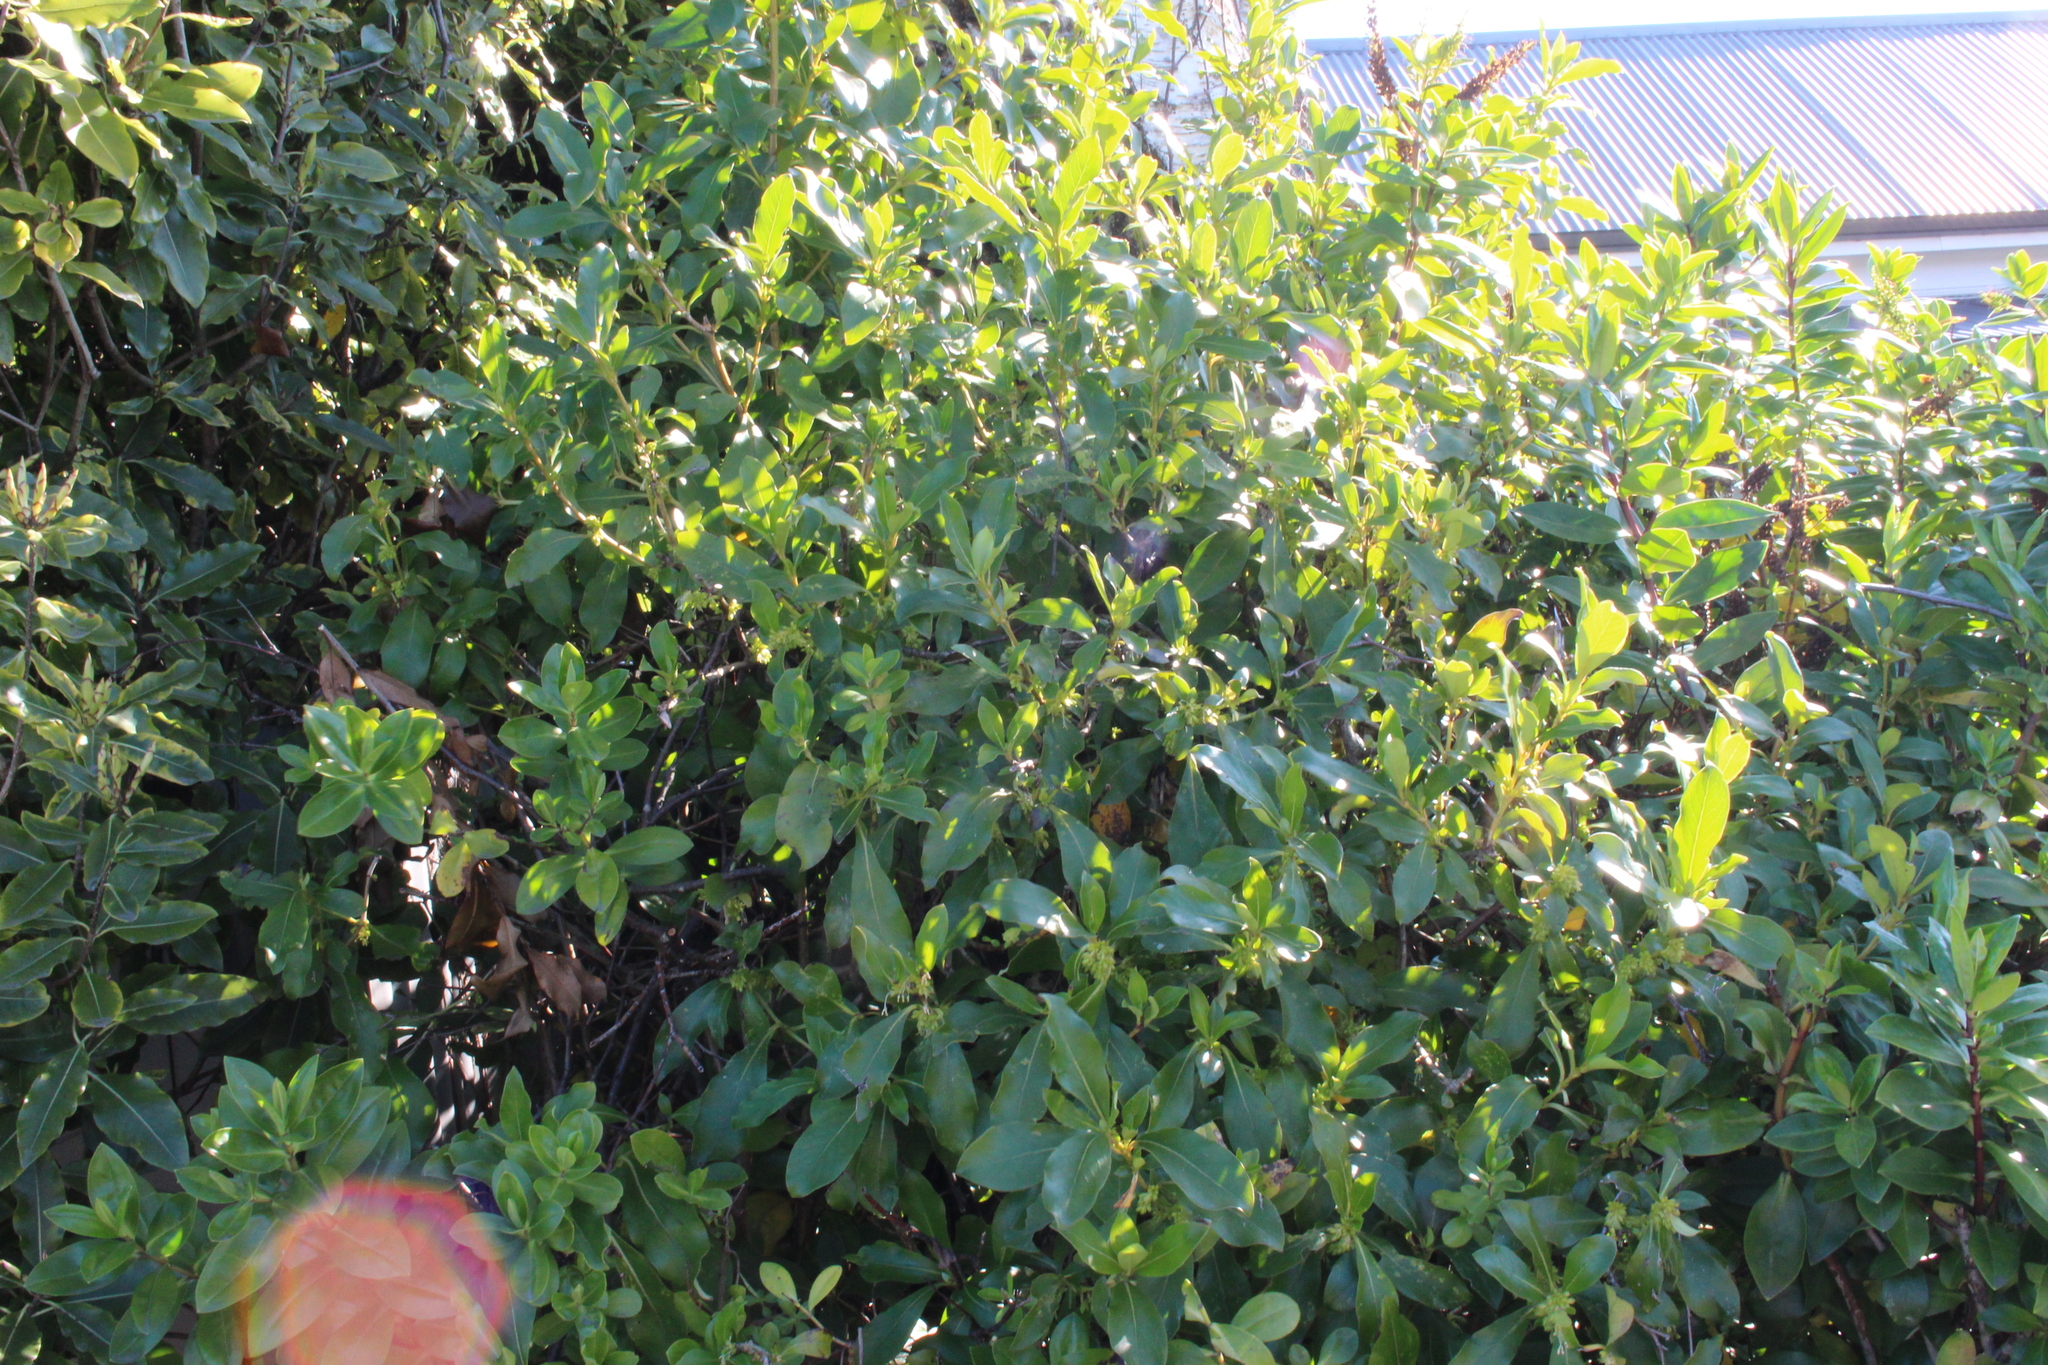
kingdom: Plantae
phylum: Tracheophyta
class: Magnoliopsida
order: Gentianales
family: Rubiaceae
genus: Coprosma
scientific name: Coprosma robusta
